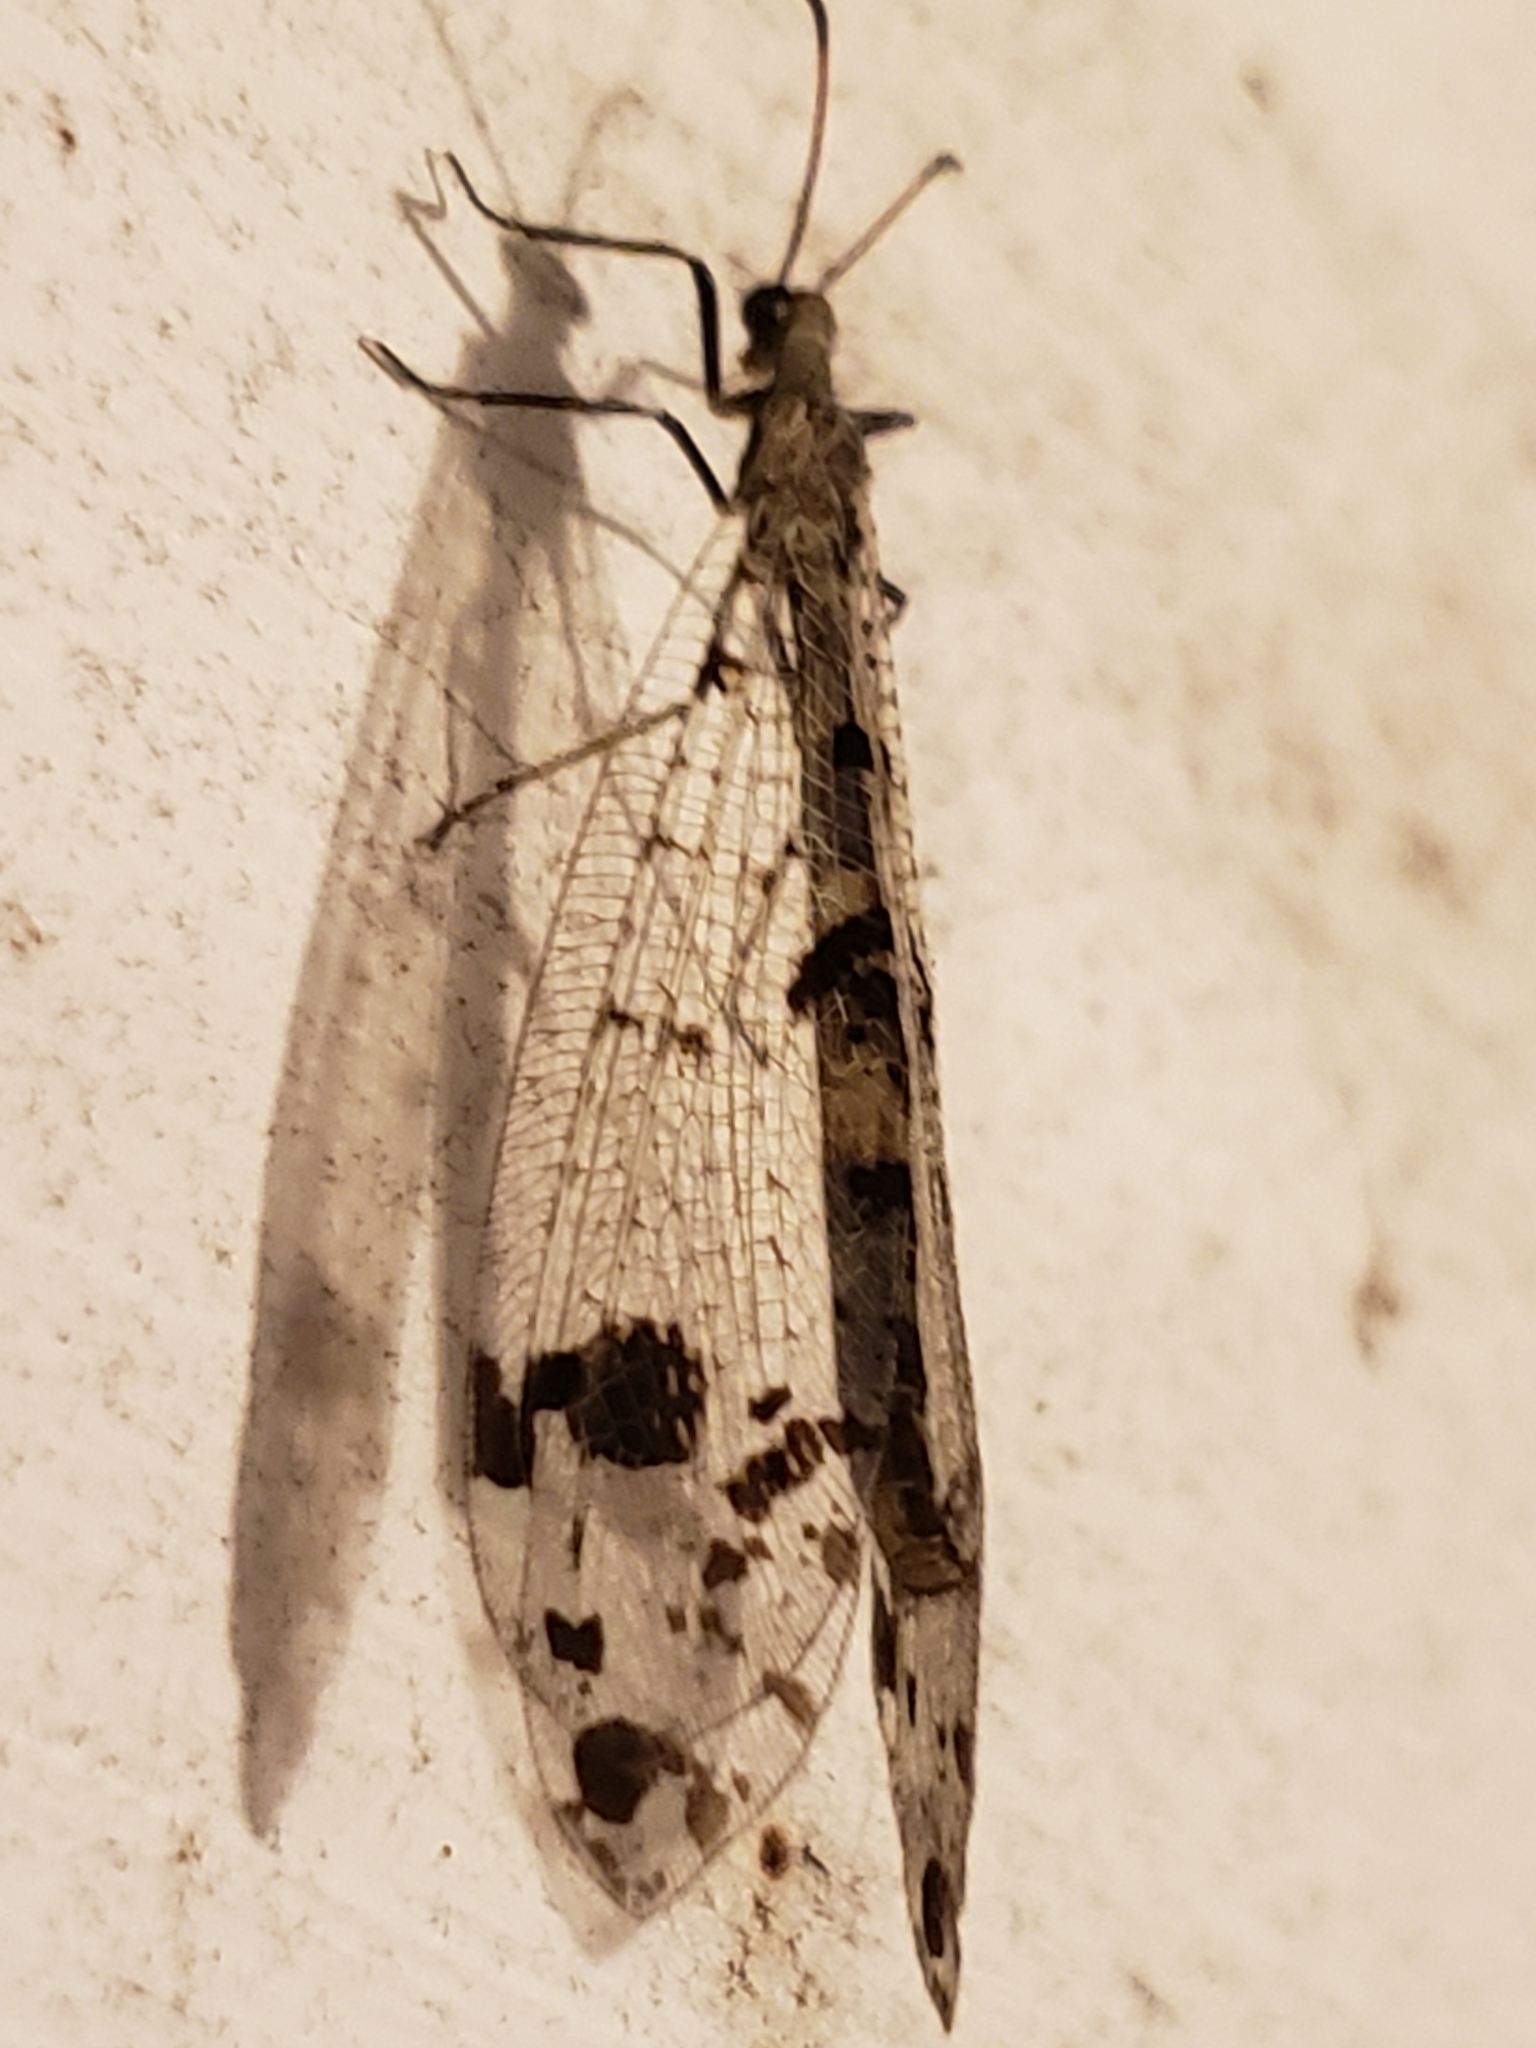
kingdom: Animalia
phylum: Arthropoda
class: Insecta
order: Neuroptera
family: Myrmeleontidae
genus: Dendroleon
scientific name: Dendroleon obsoletus
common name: Eastern spotted-winged antlion
